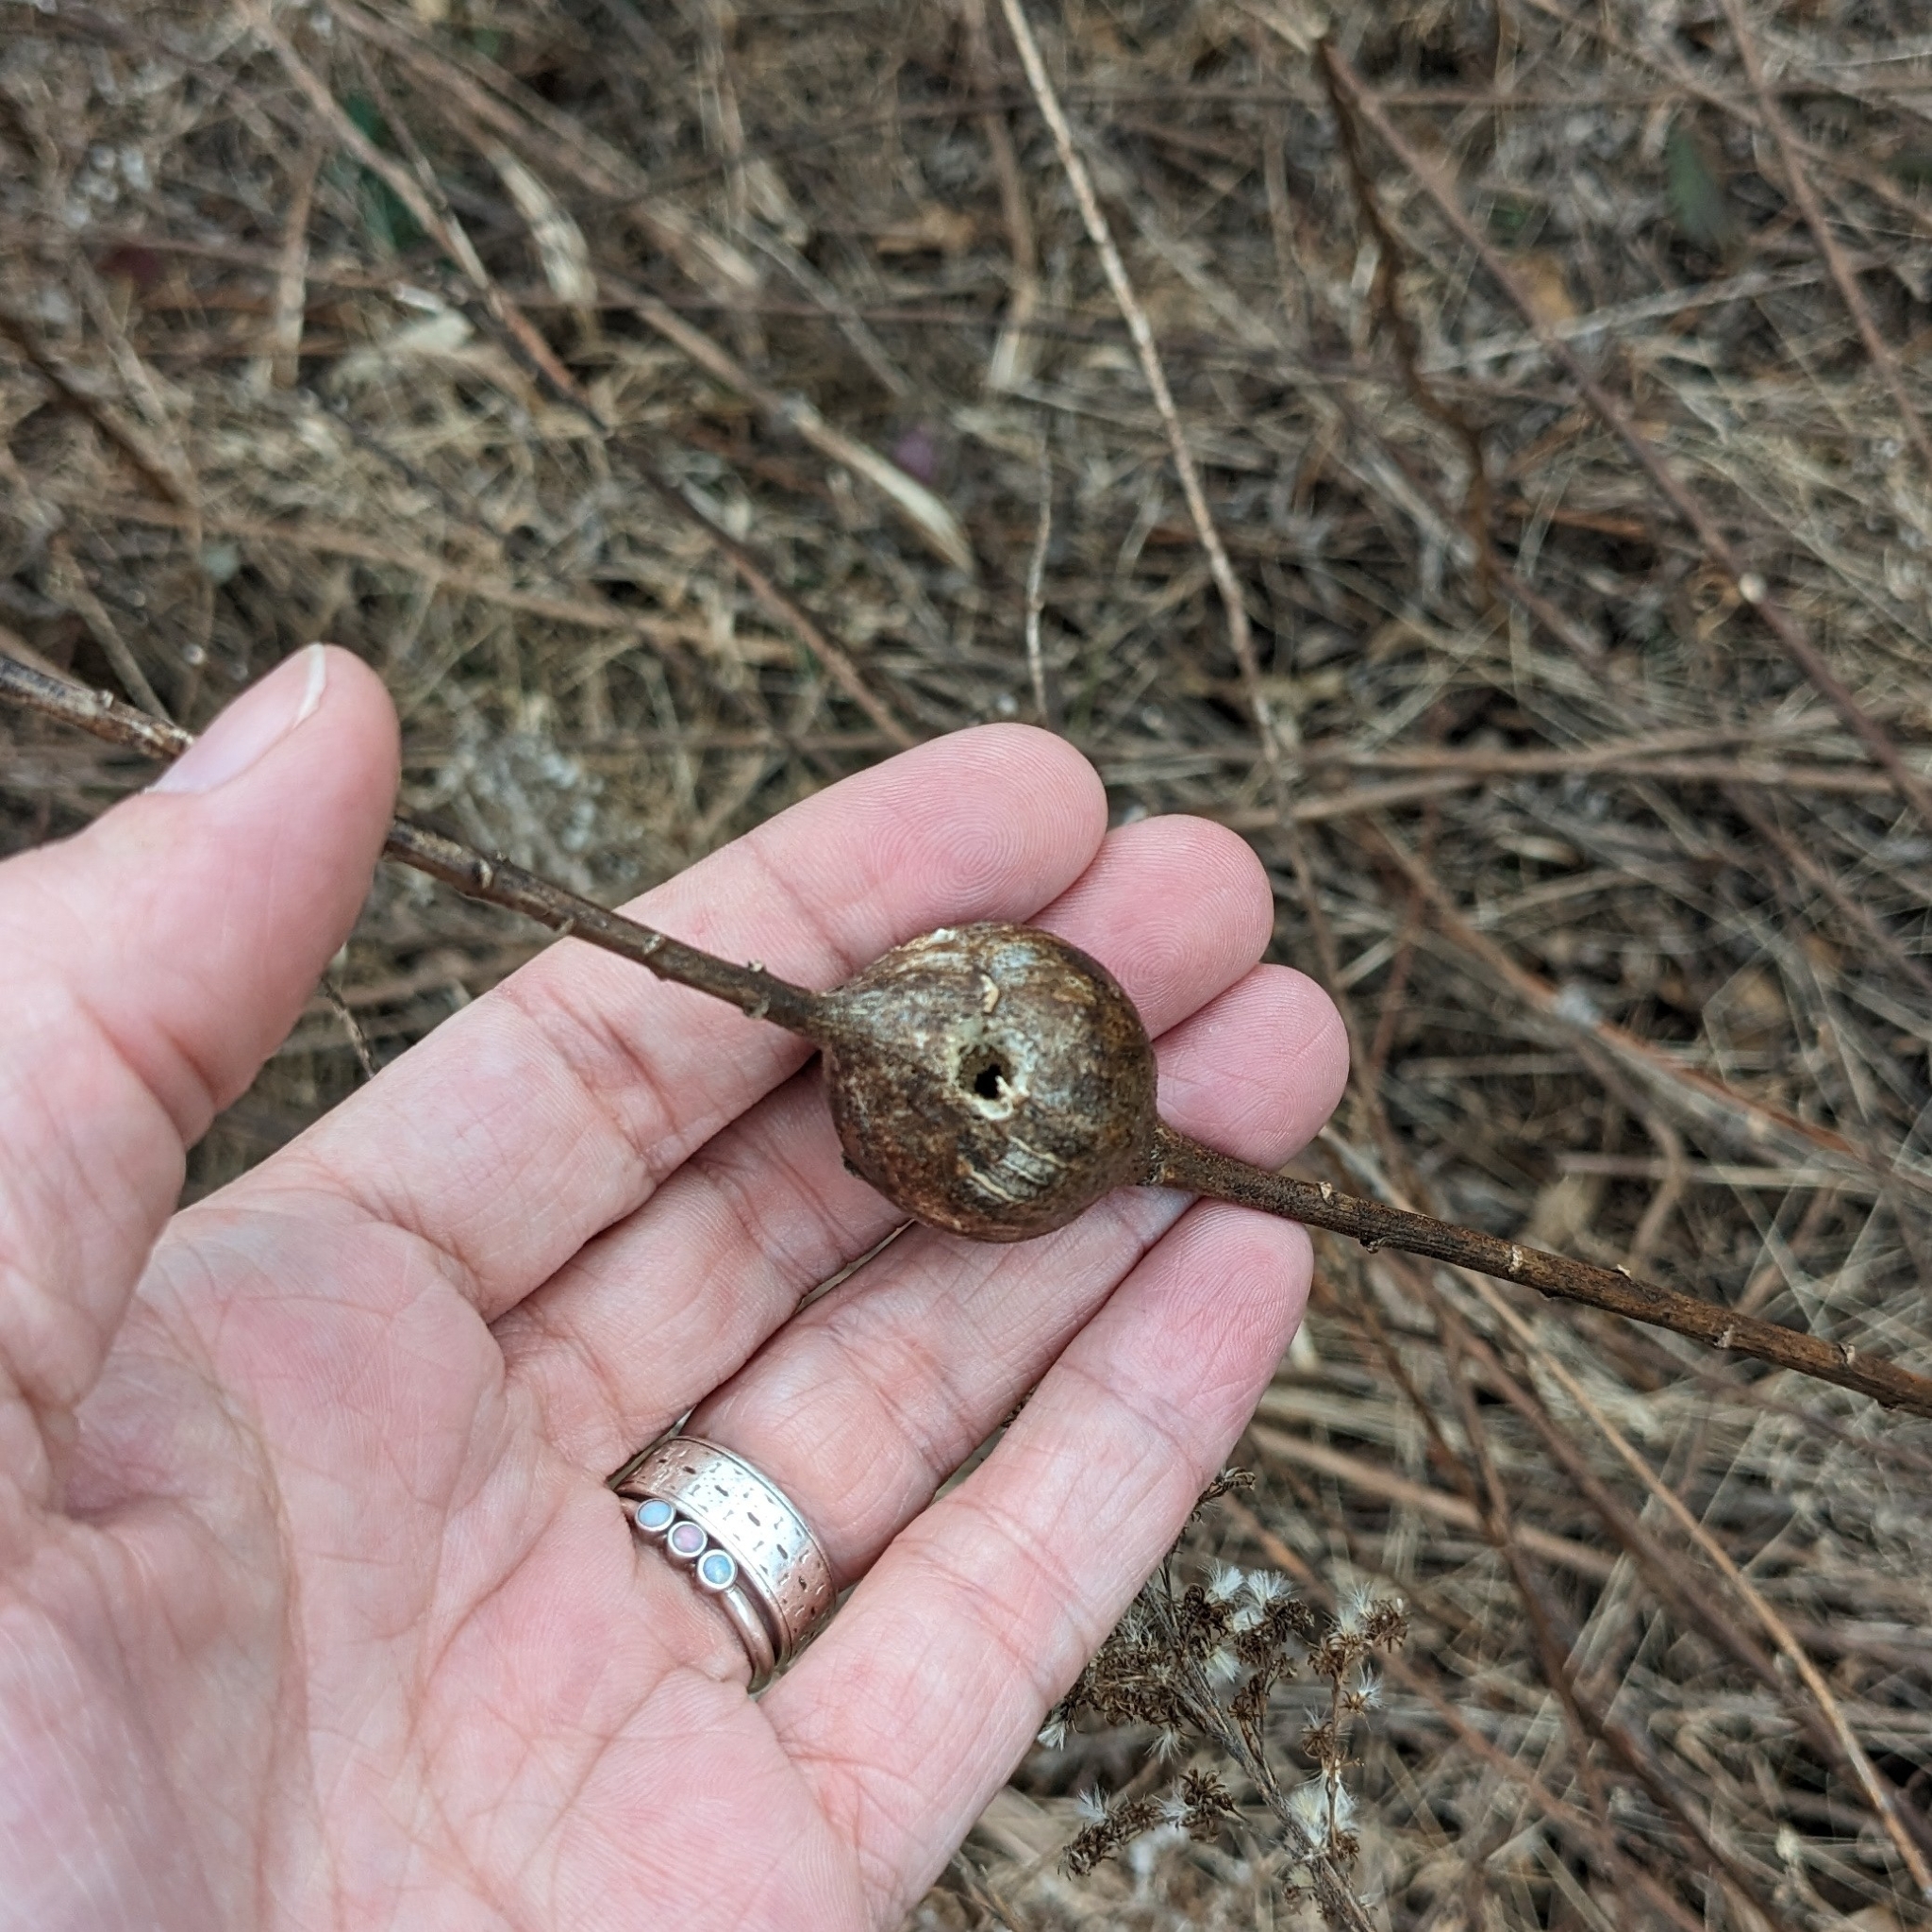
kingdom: Animalia
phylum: Arthropoda
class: Insecta
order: Diptera
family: Tephritidae
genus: Eurosta
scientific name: Eurosta solidaginis
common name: Goldenrod gall fly
